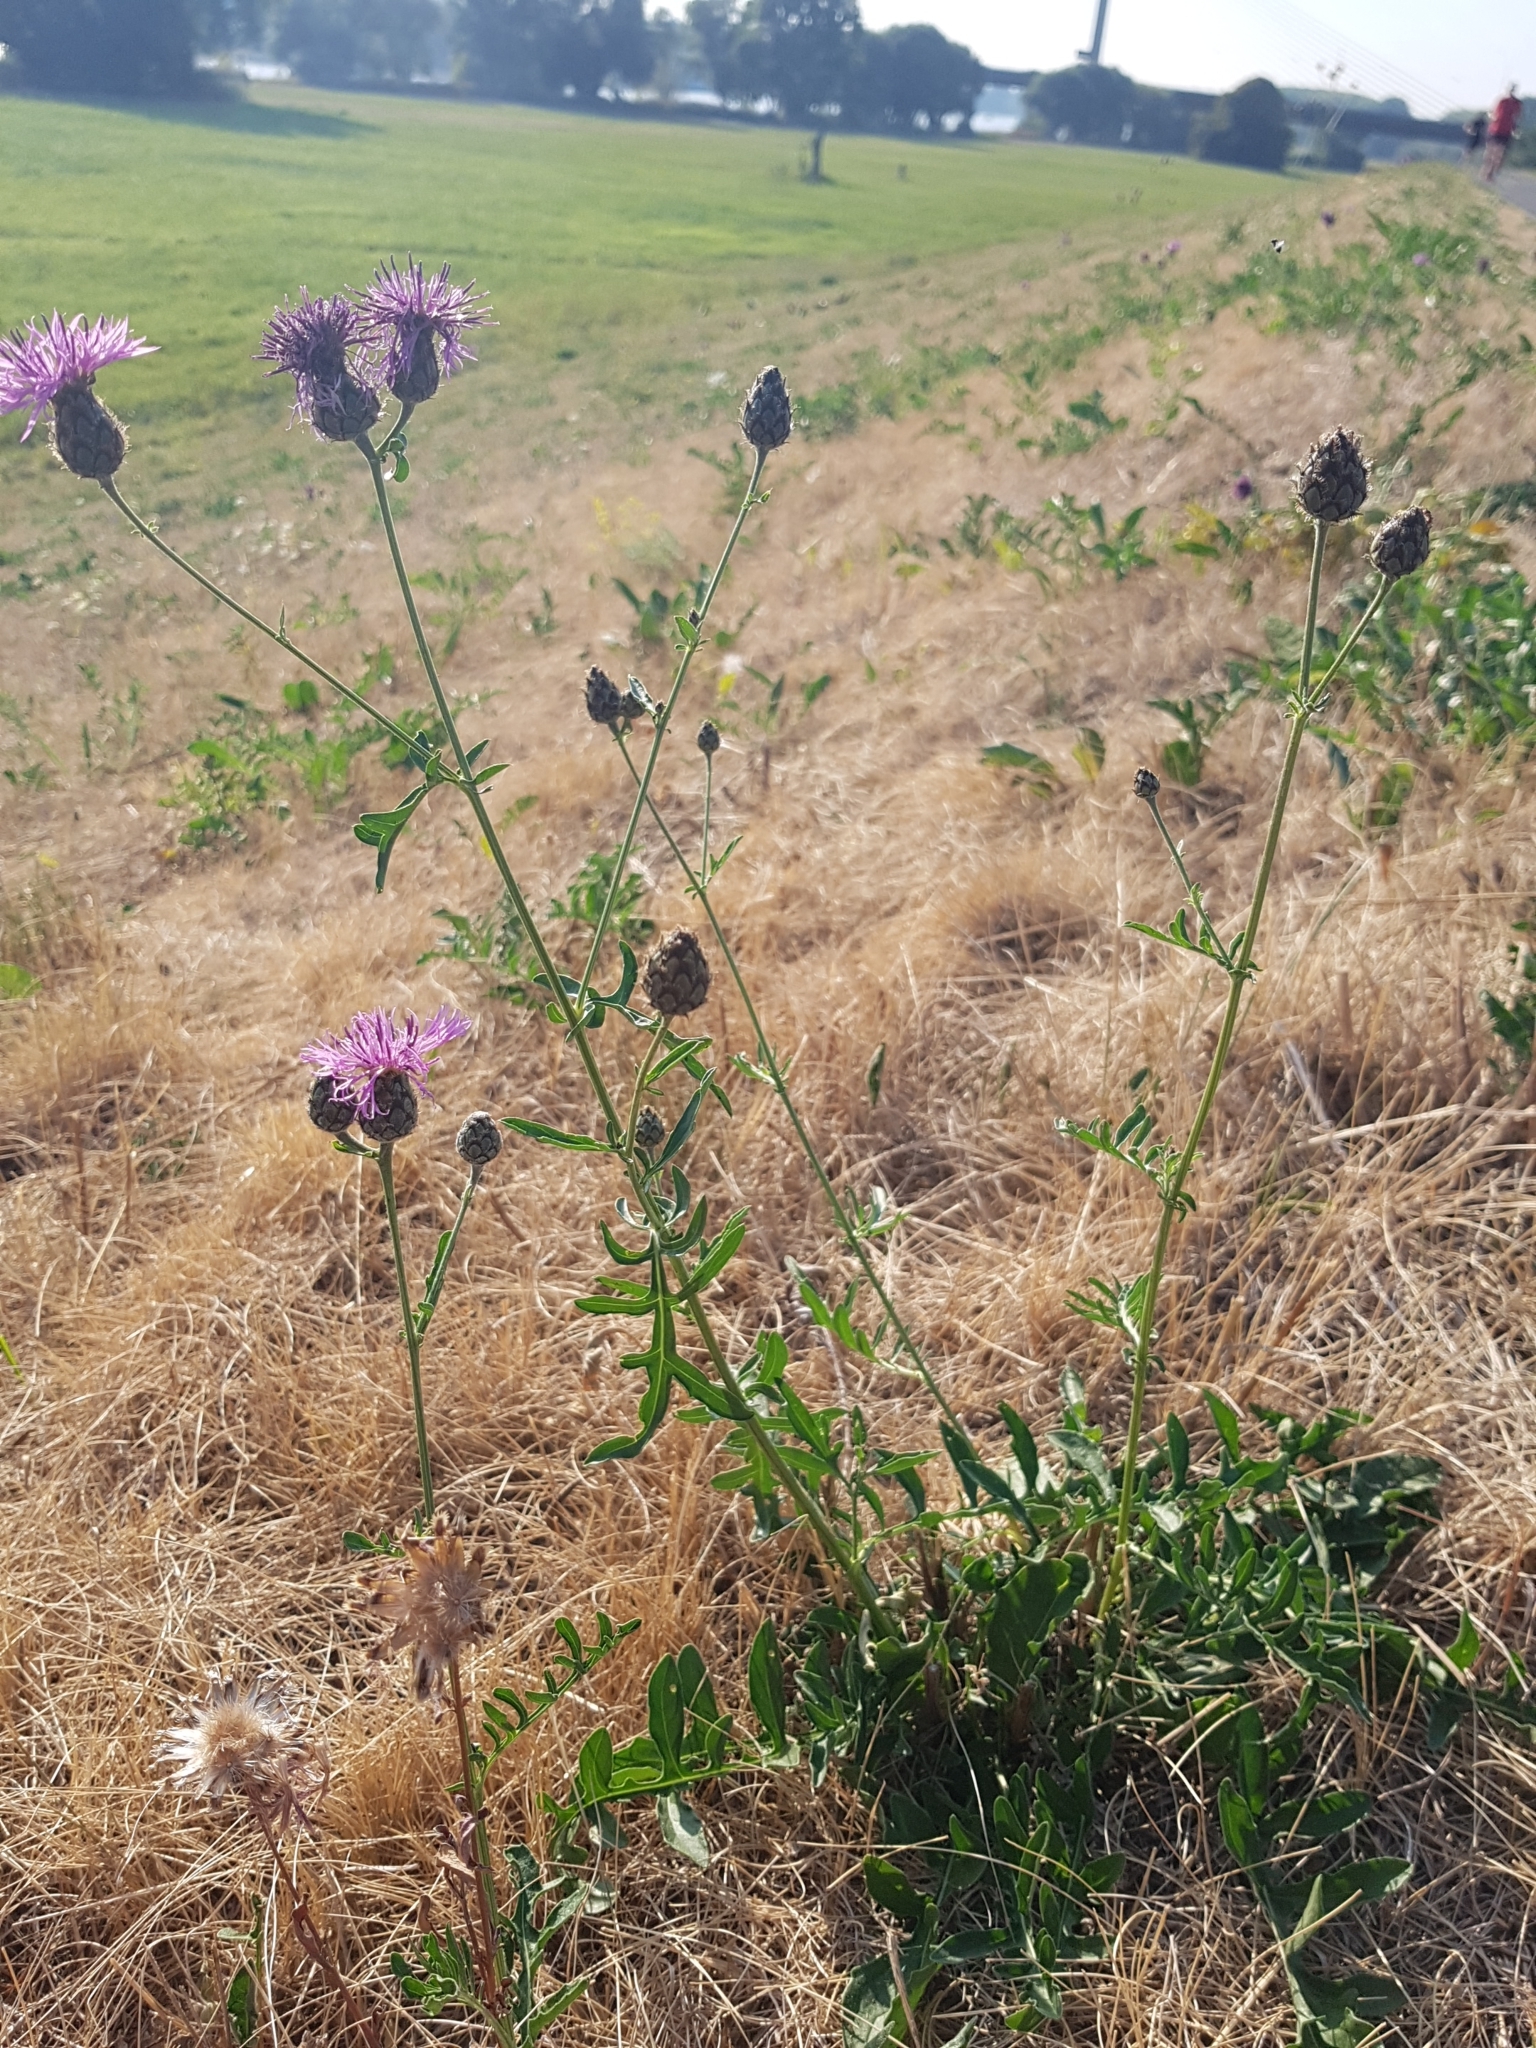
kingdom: Plantae
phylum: Tracheophyta
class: Magnoliopsida
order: Asterales
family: Asteraceae
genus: Centaurea
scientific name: Centaurea scabiosa
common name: Greater knapweed
